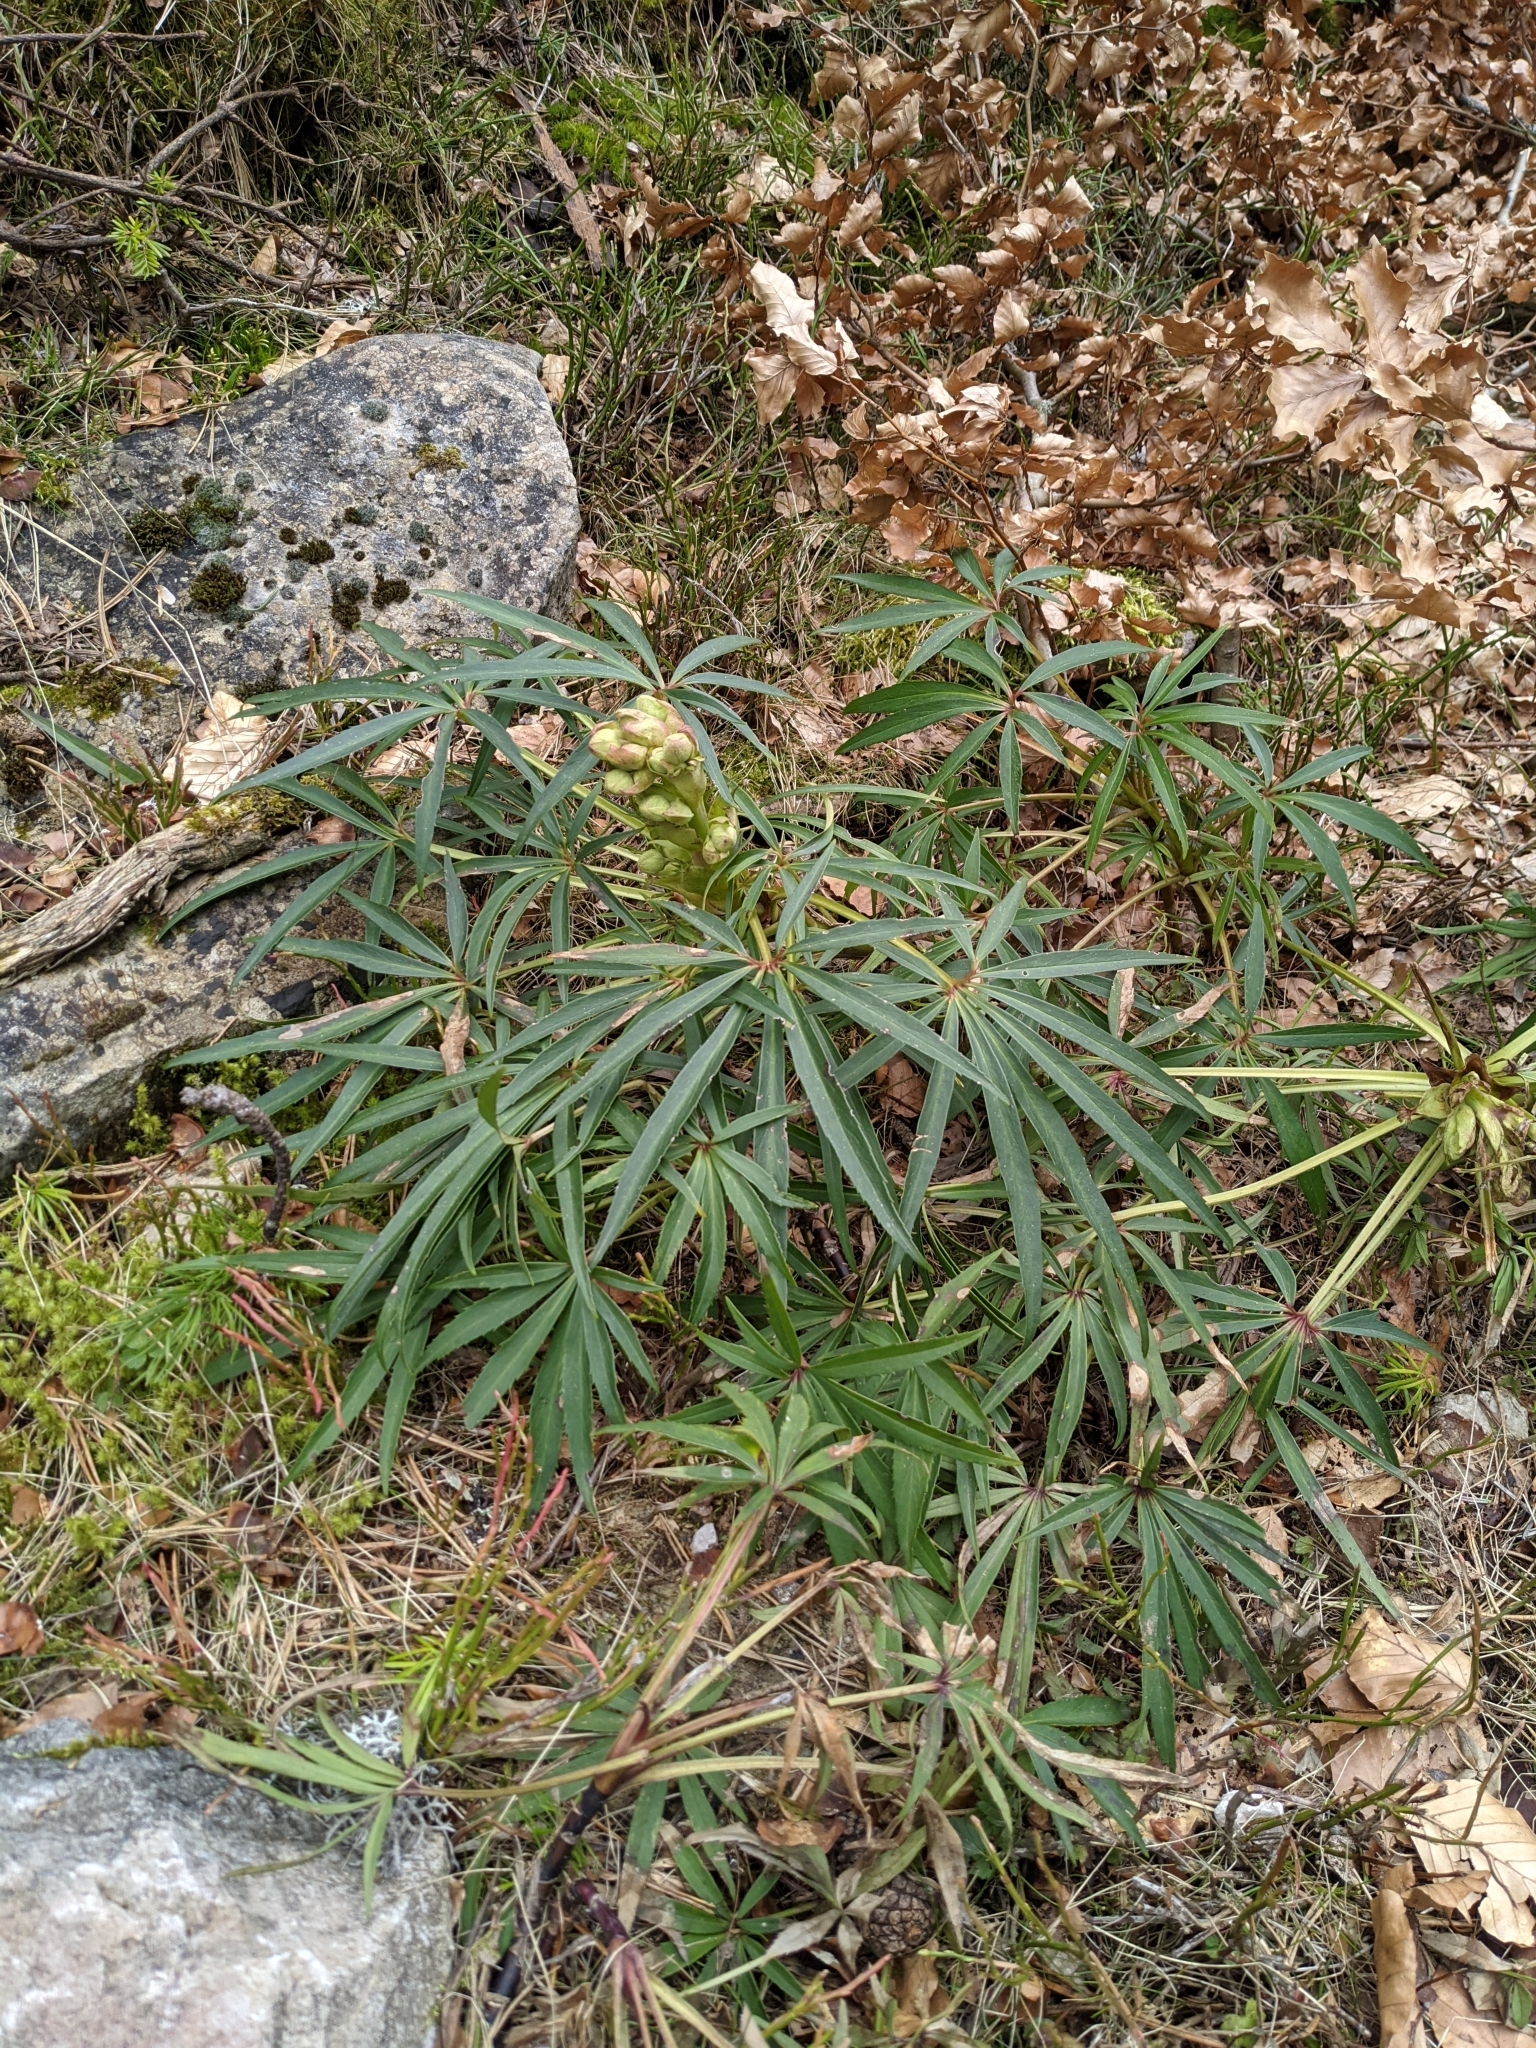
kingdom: Plantae
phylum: Tracheophyta
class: Magnoliopsida
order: Ranunculales
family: Ranunculaceae
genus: Helleborus
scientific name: Helleborus foetidus
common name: Stinking hellebore
